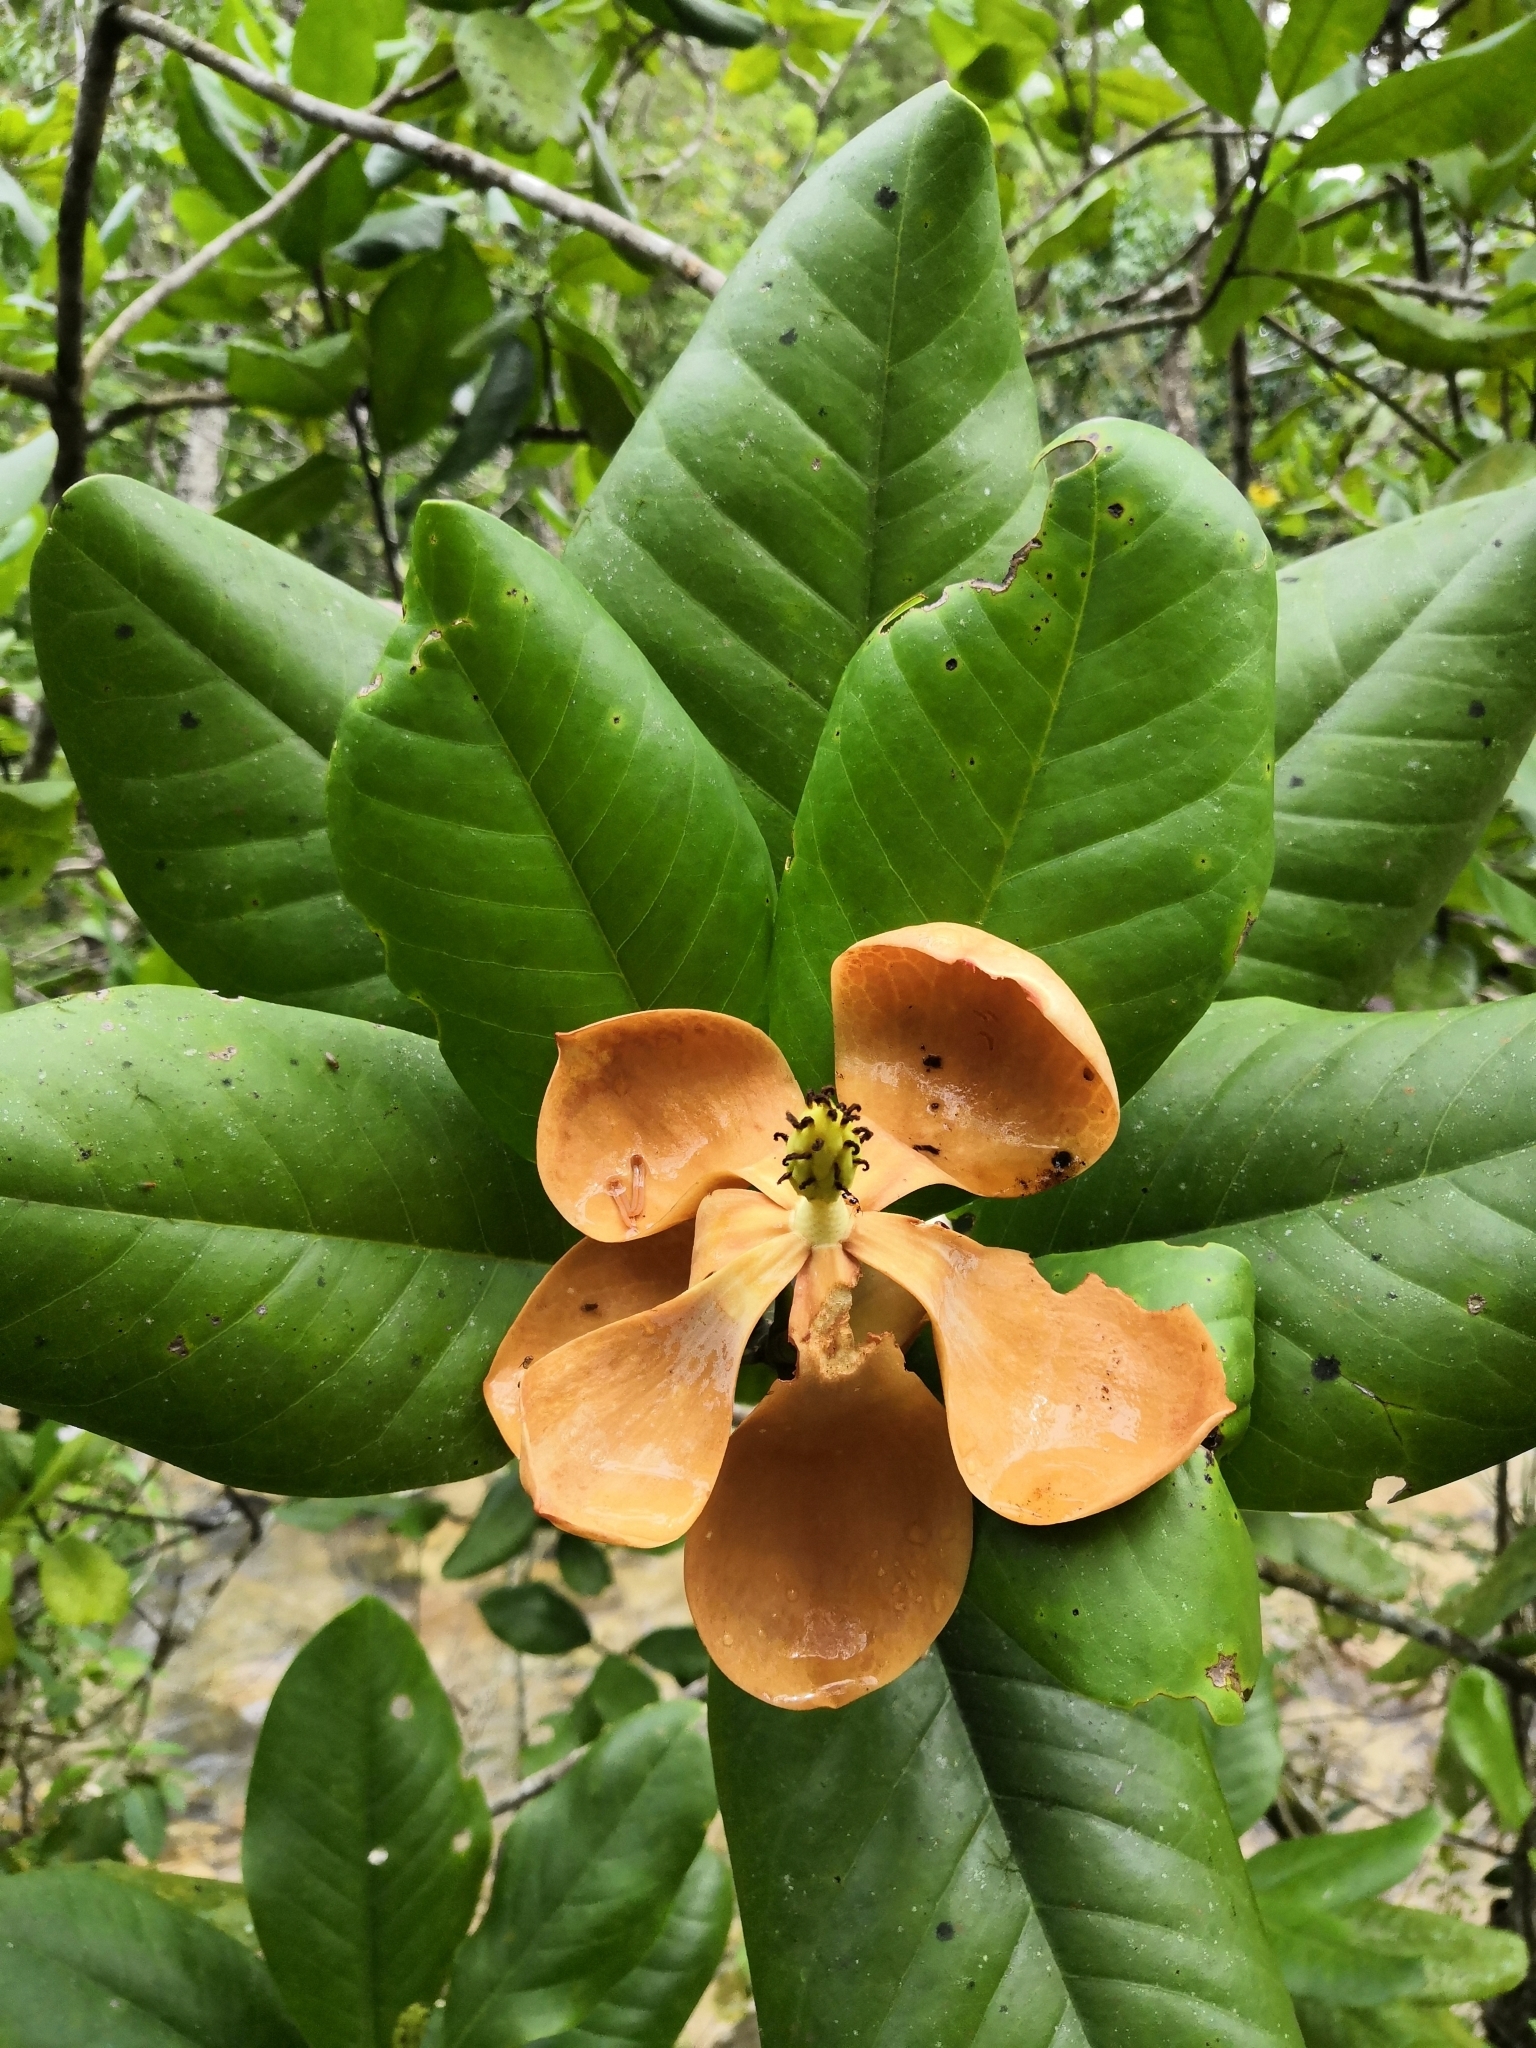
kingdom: Plantae
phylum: Tracheophyta
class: Magnoliopsida
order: Magnoliales
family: Magnoliaceae
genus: Magnolia
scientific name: Magnolia pacifica
